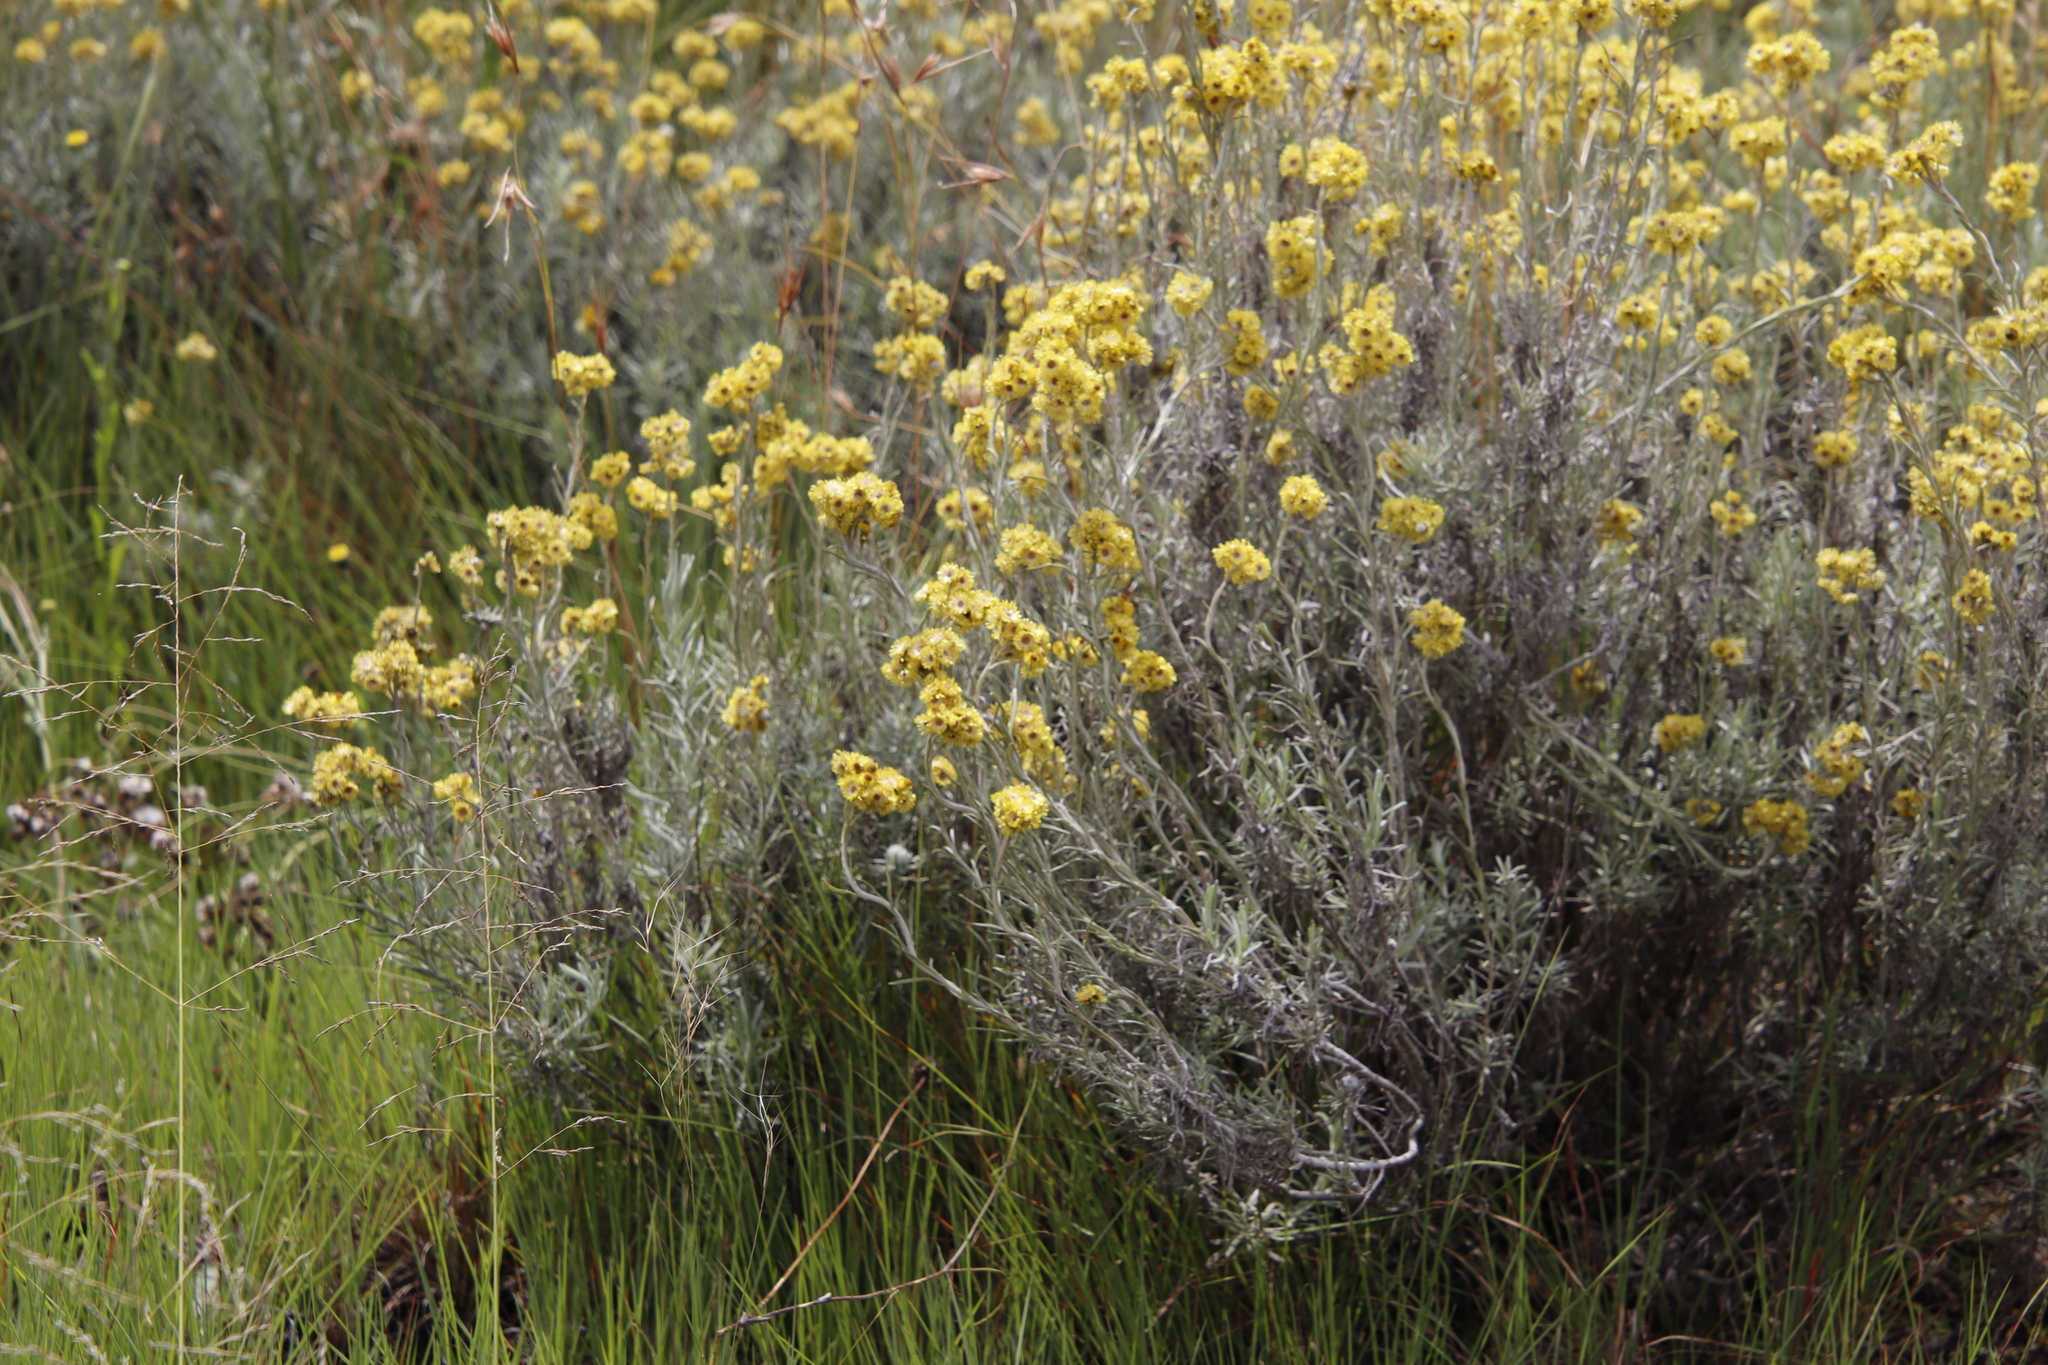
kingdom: Plantae
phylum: Tracheophyta
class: Magnoliopsida
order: Asterales
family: Asteraceae
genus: Helichrysum
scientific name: Helichrysum splendidum
